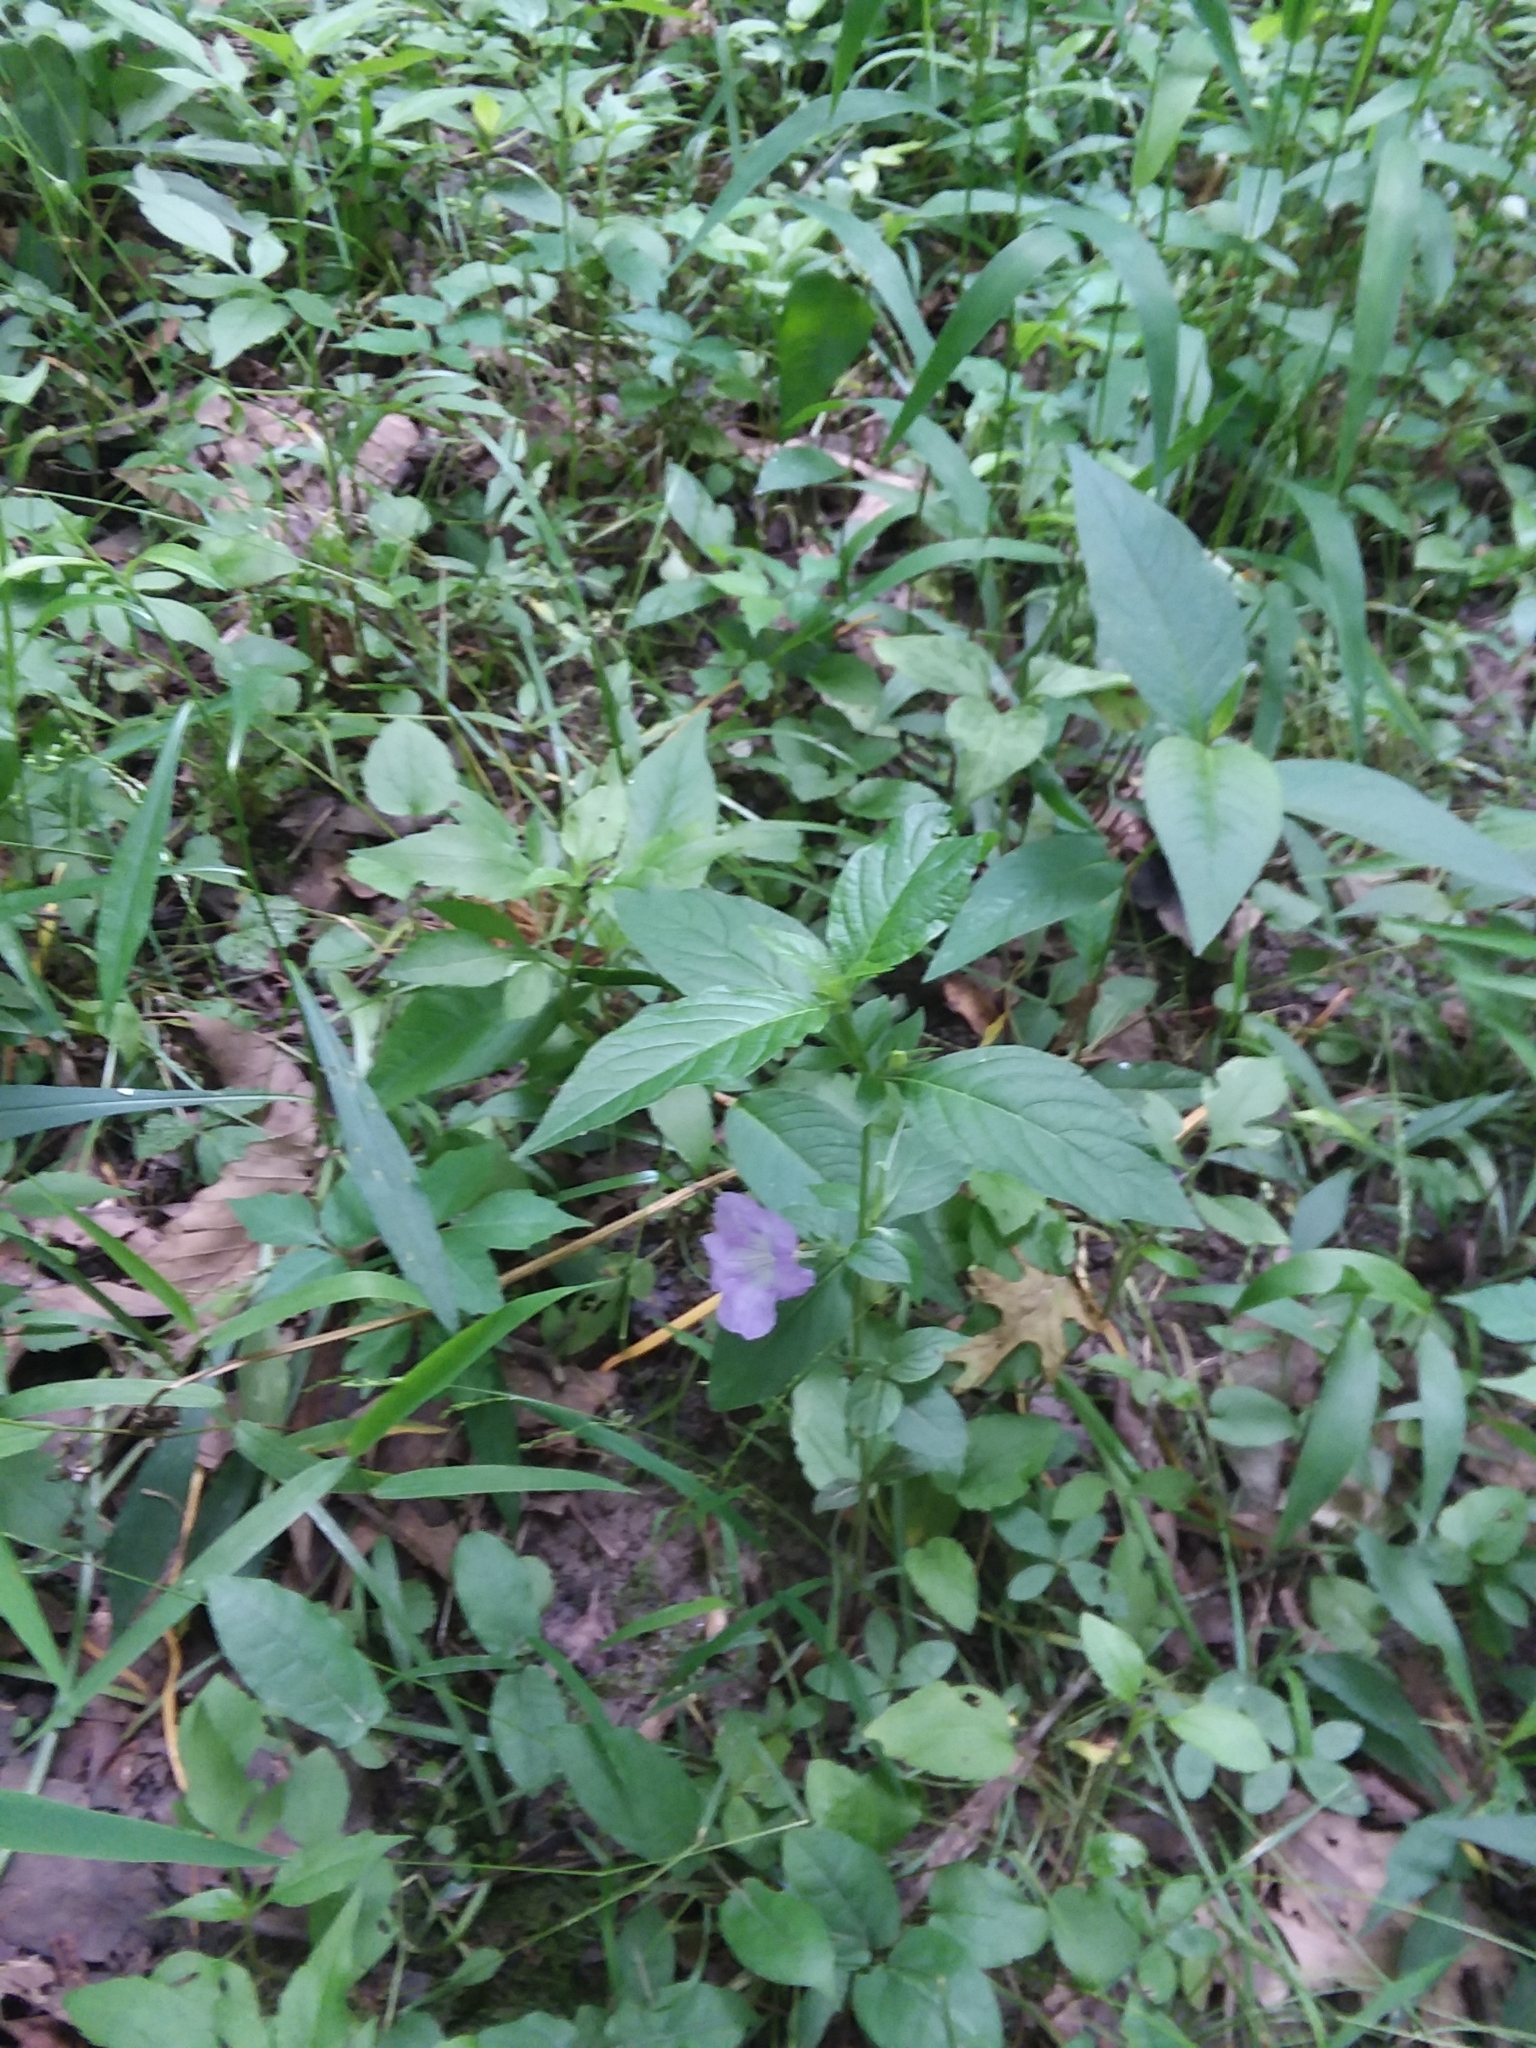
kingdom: Plantae
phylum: Tracheophyta
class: Magnoliopsida
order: Lamiales
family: Acanthaceae
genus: Ruellia
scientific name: Ruellia strepens
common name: Limestone wild petunia
